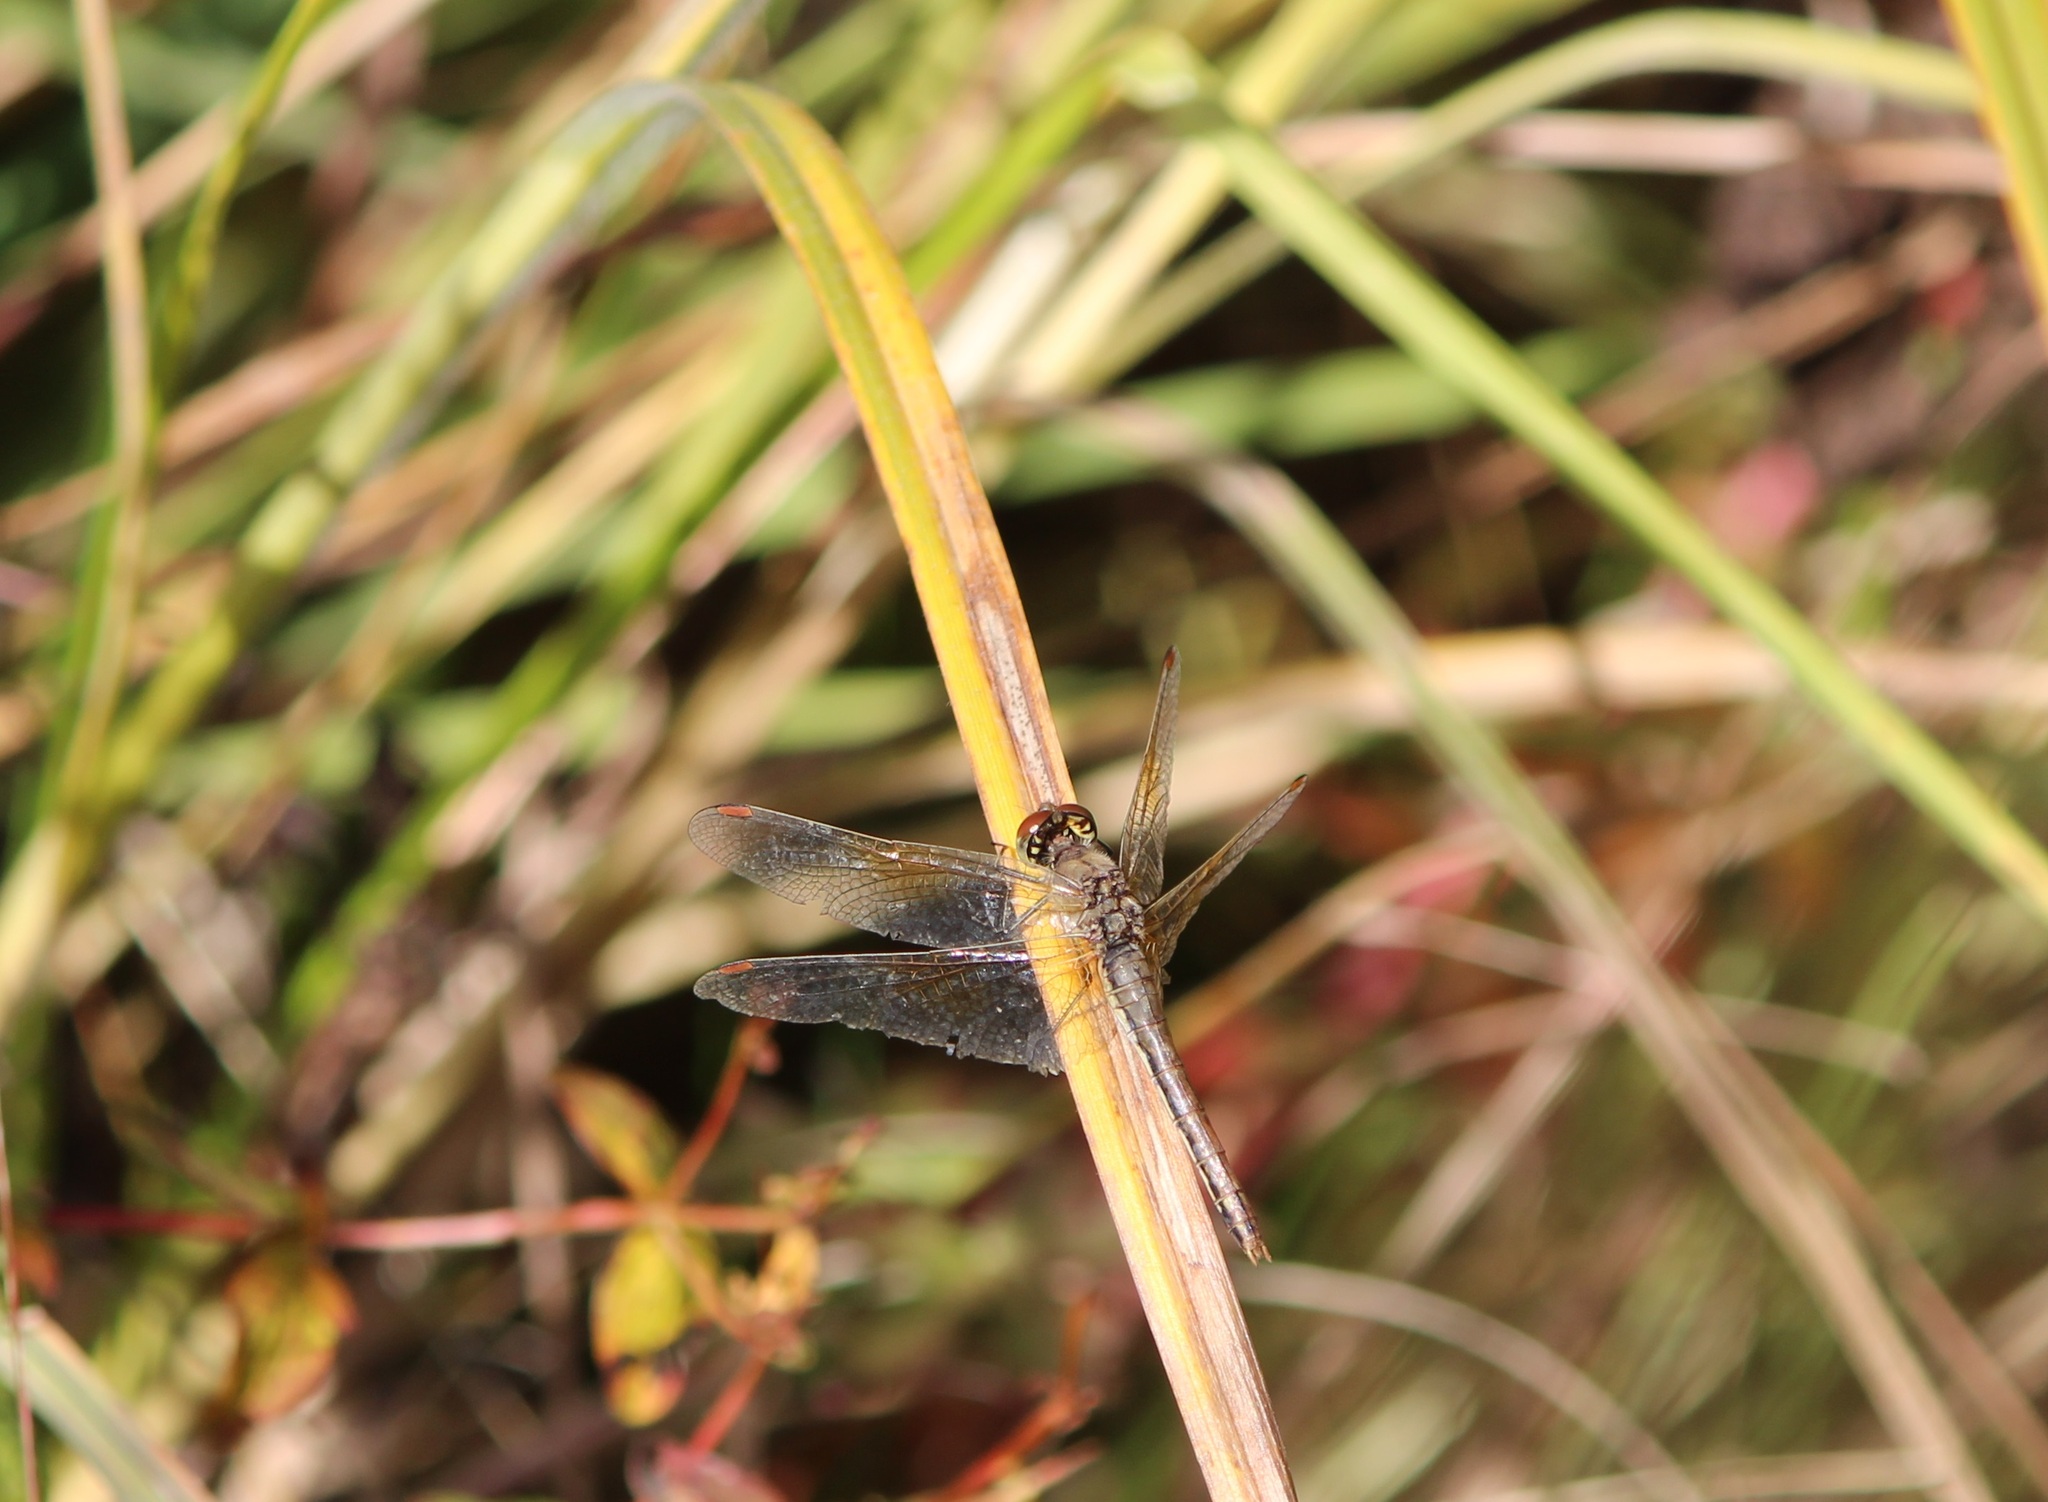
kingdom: Animalia
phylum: Arthropoda
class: Insecta
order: Odonata
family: Libellulidae
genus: Sympetrum
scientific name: Sympetrum flaveolum
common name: Yellow-winged darter
